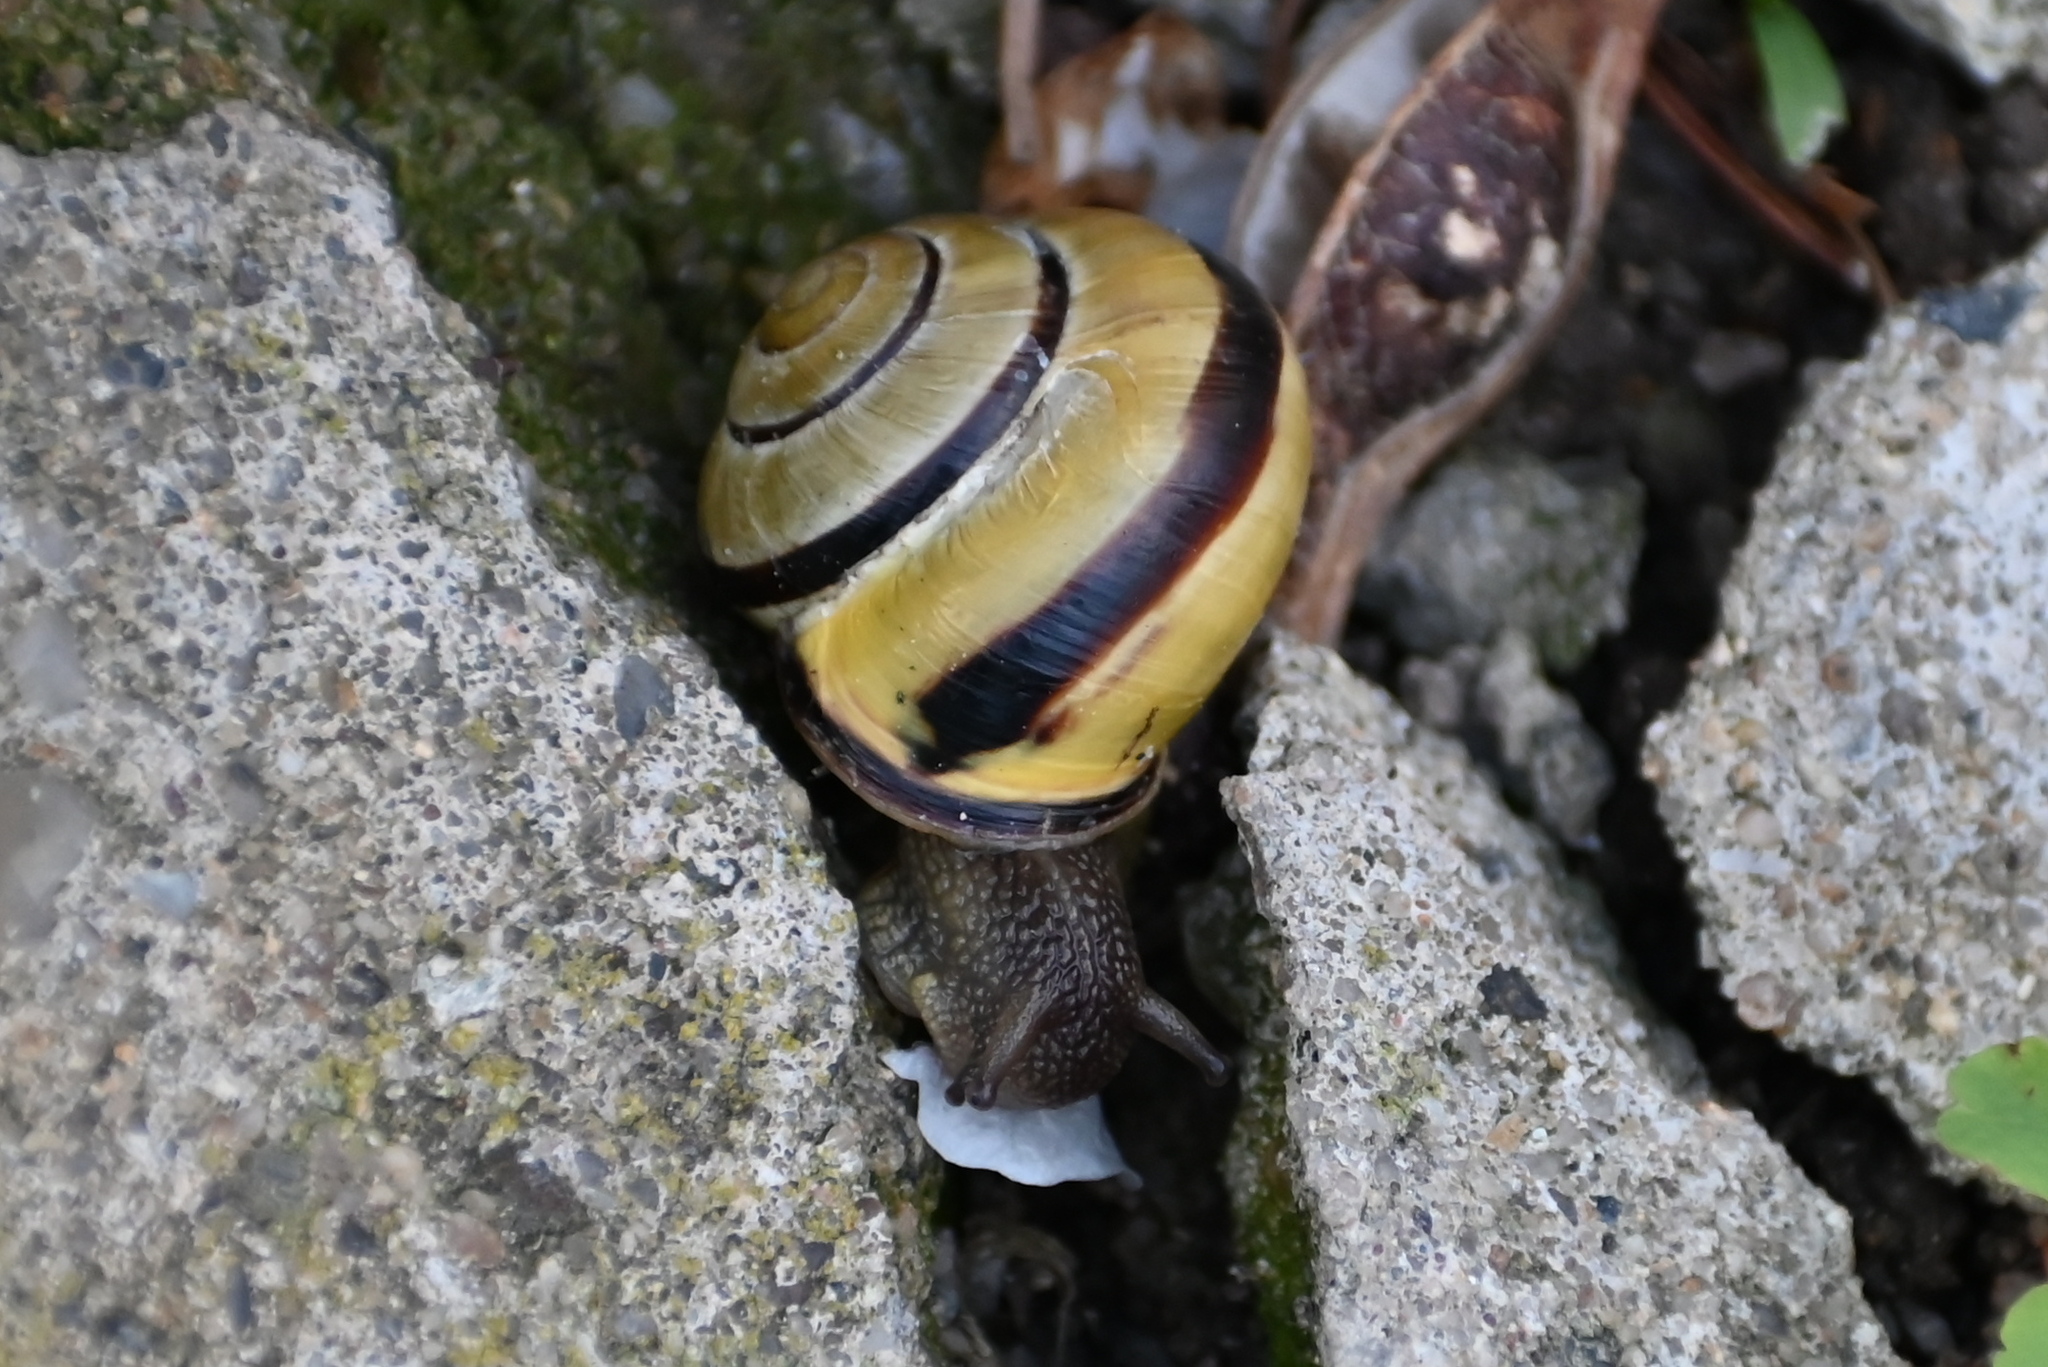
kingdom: Animalia
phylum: Mollusca
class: Gastropoda
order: Stylommatophora
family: Helicidae
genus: Cepaea
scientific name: Cepaea nemoralis
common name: Grovesnail
